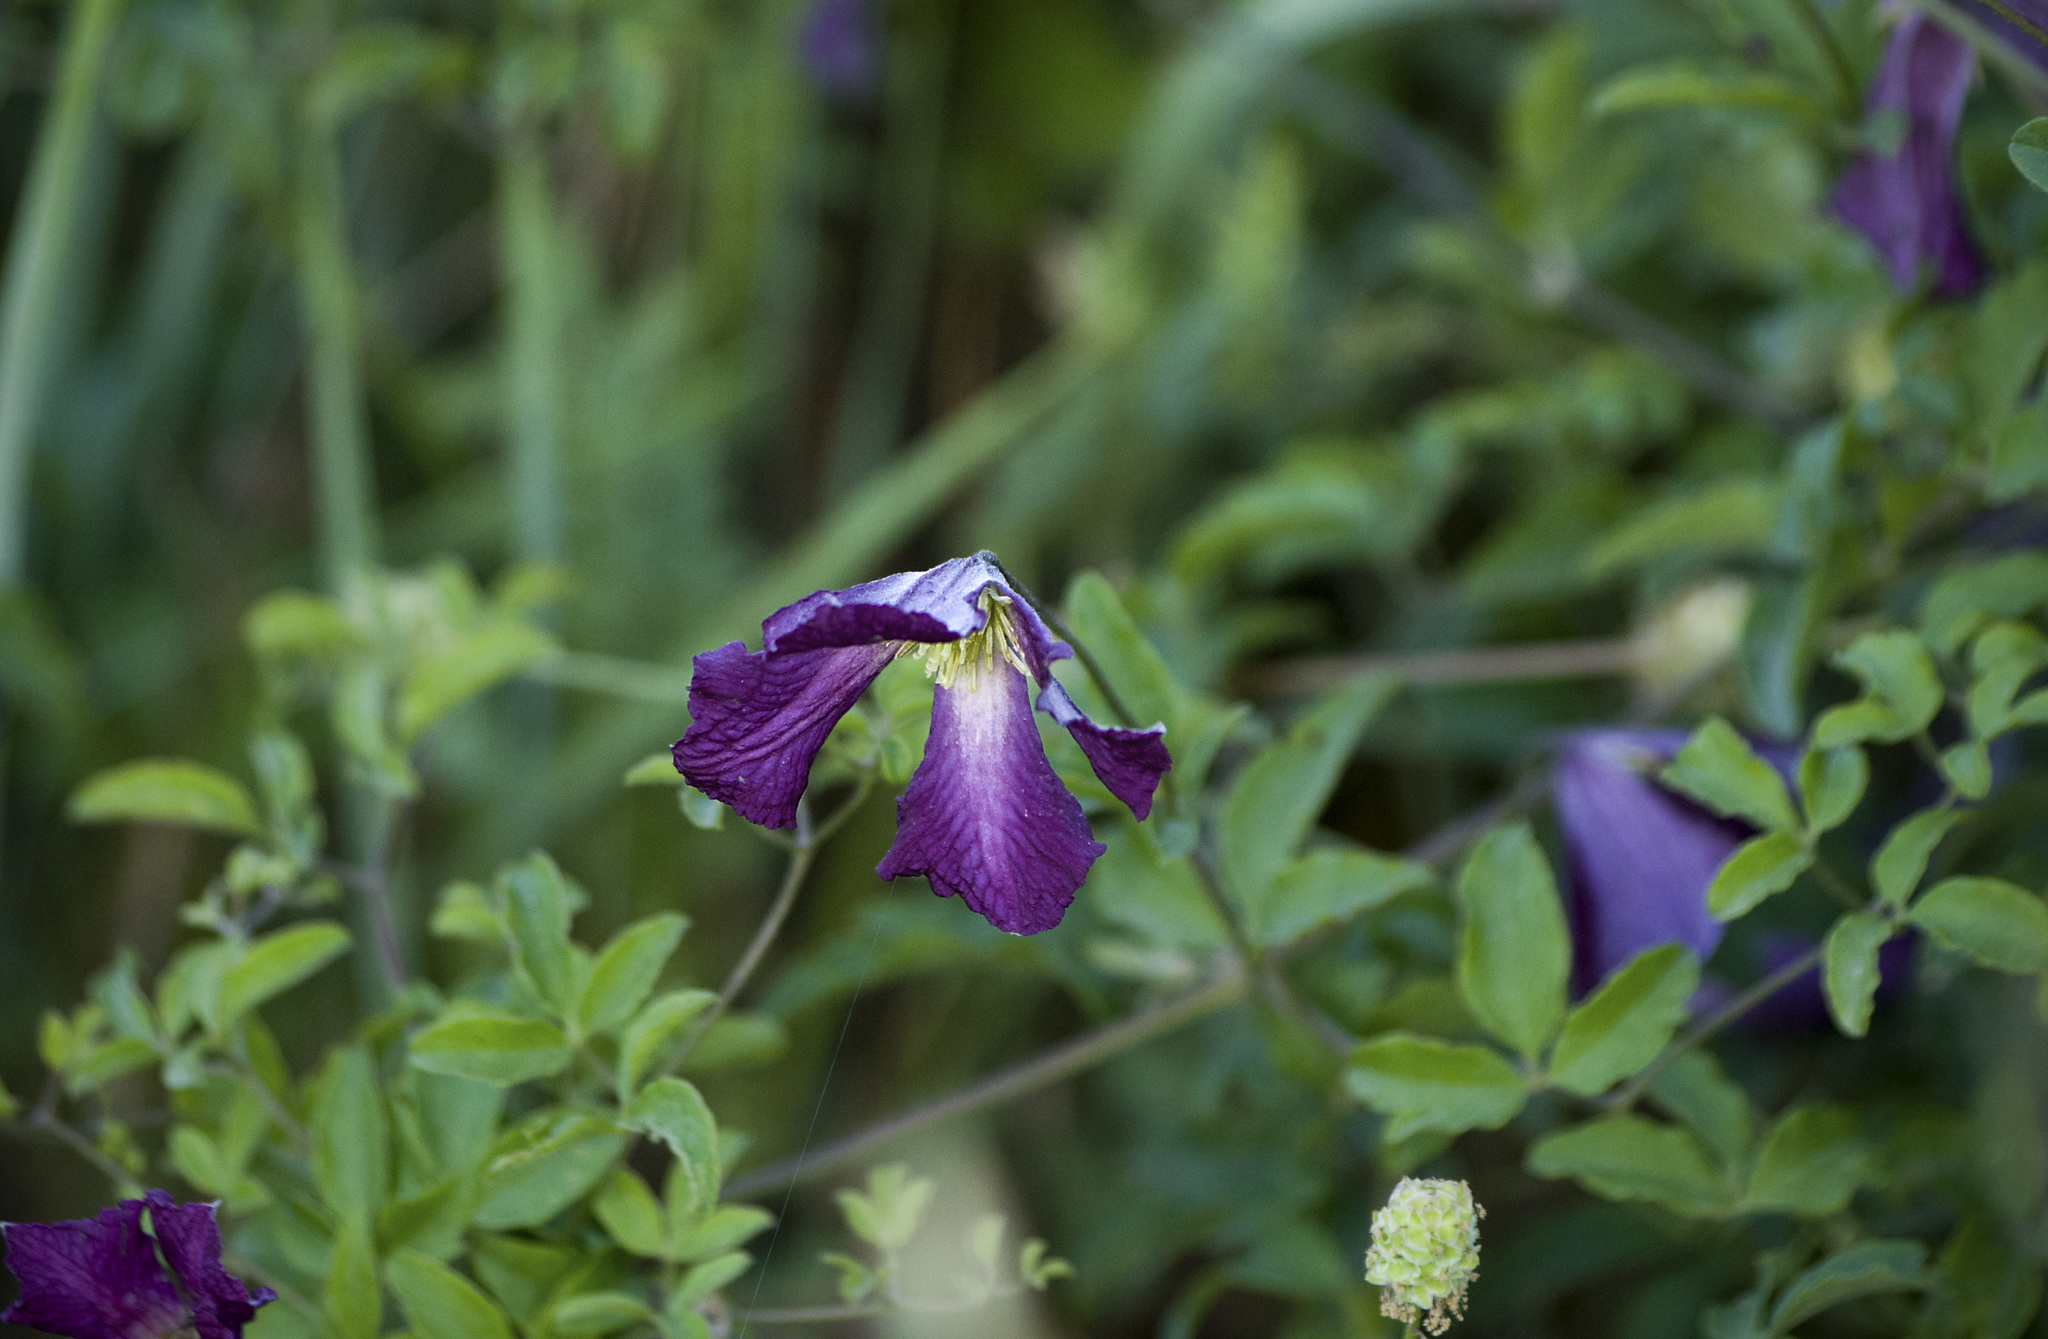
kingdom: Plantae
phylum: Tracheophyta
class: Magnoliopsida
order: Ranunculales
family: Ranunculaceae
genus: Clematis
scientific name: Clematis viticella
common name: Purple clematis
